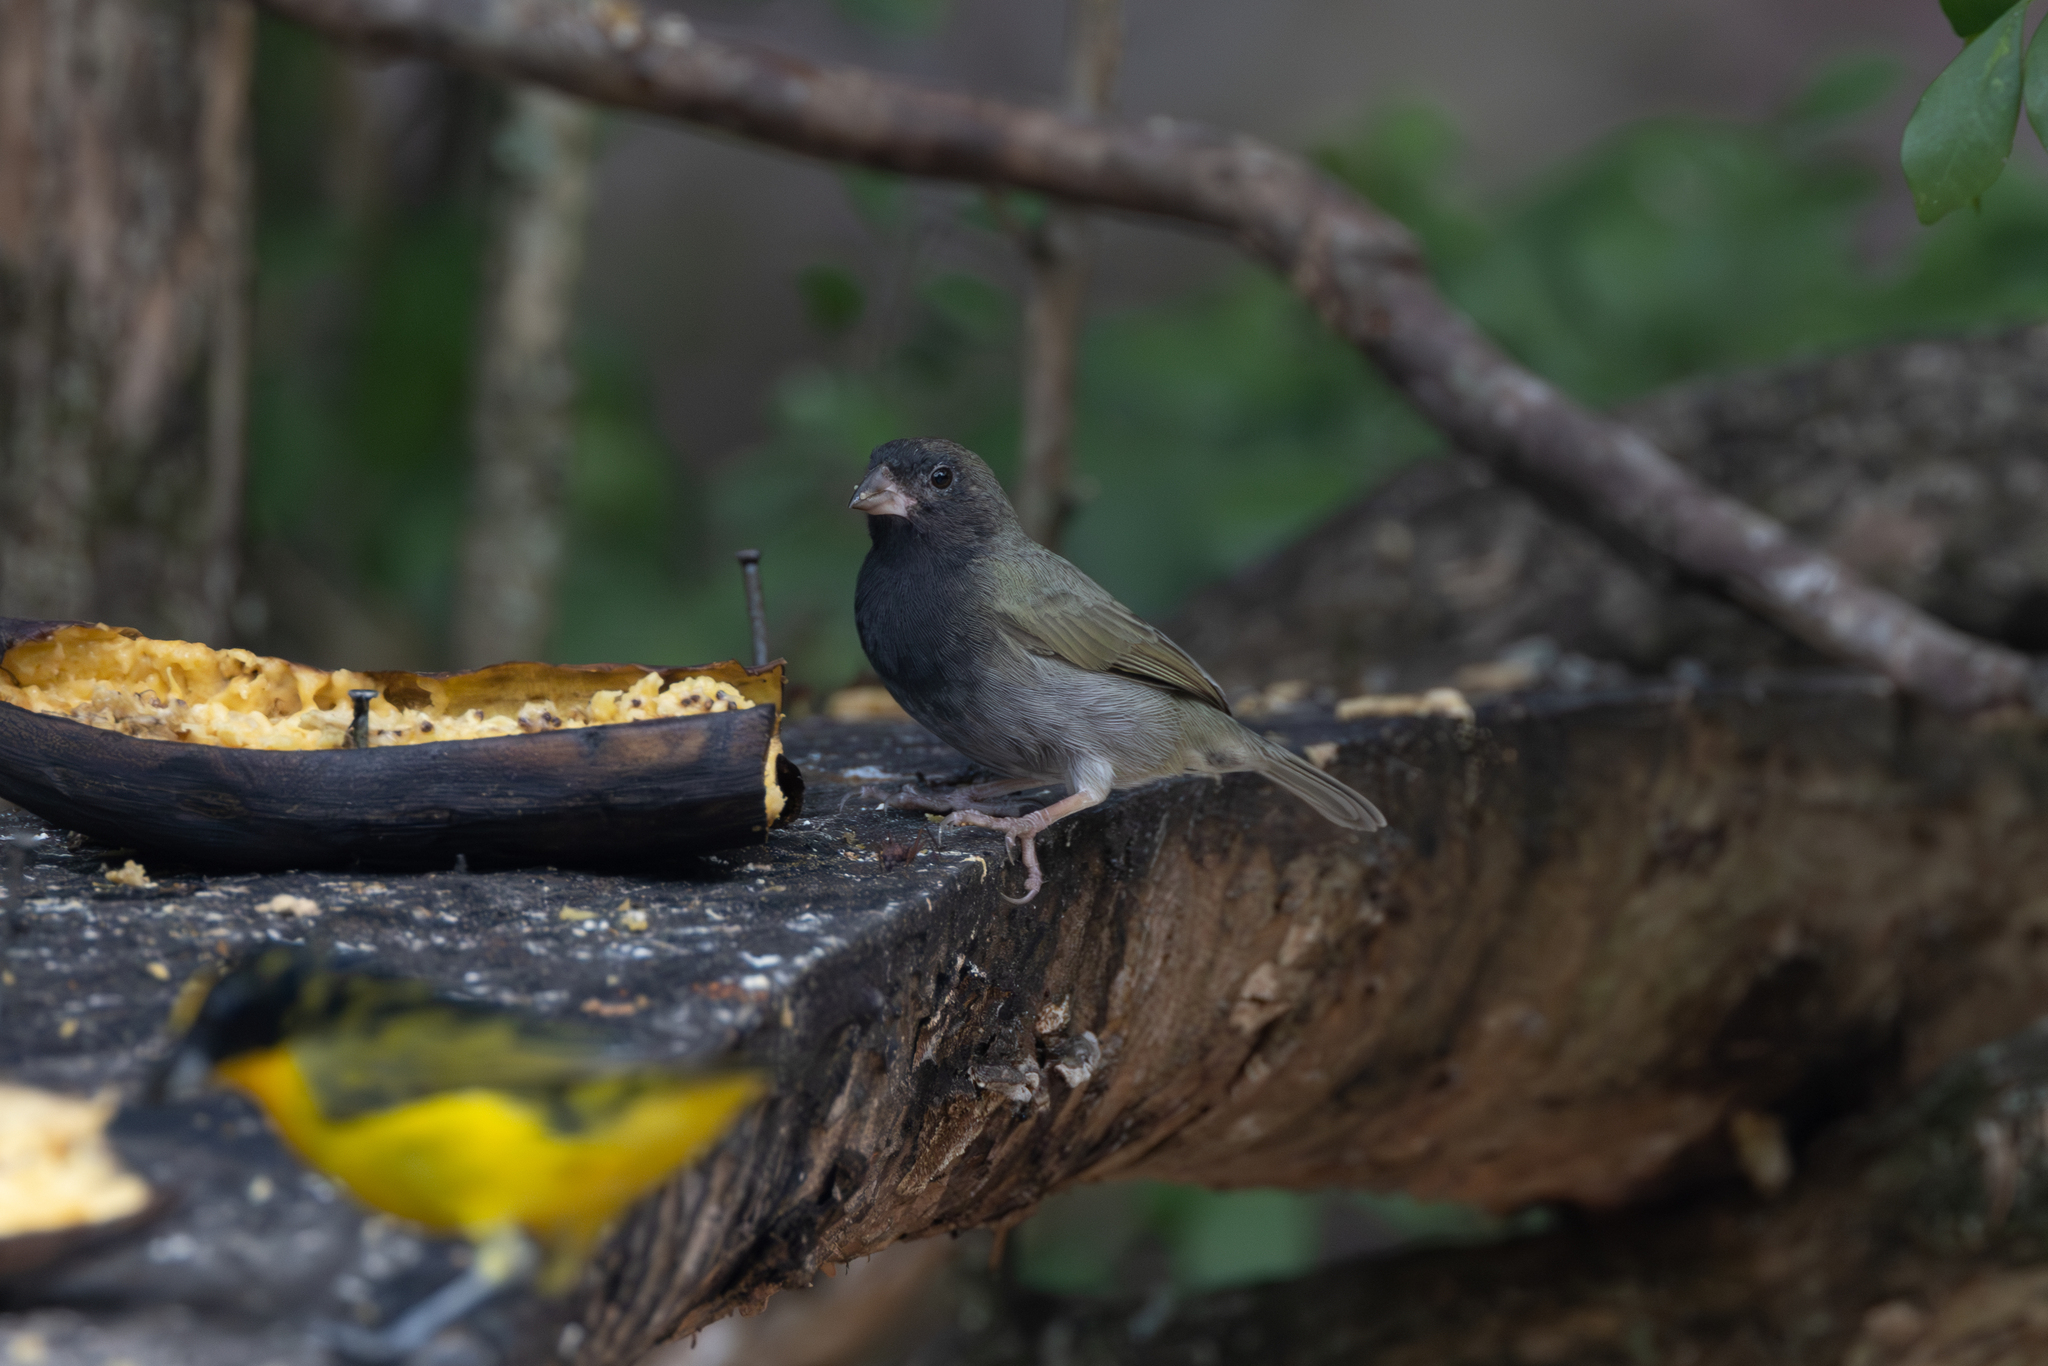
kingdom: Animalia
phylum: Chordata
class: Aves
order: Passeriformes
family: Thraupidae
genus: Melanospiza
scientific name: Melanospiza bicolor
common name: Black-faced grassquit
